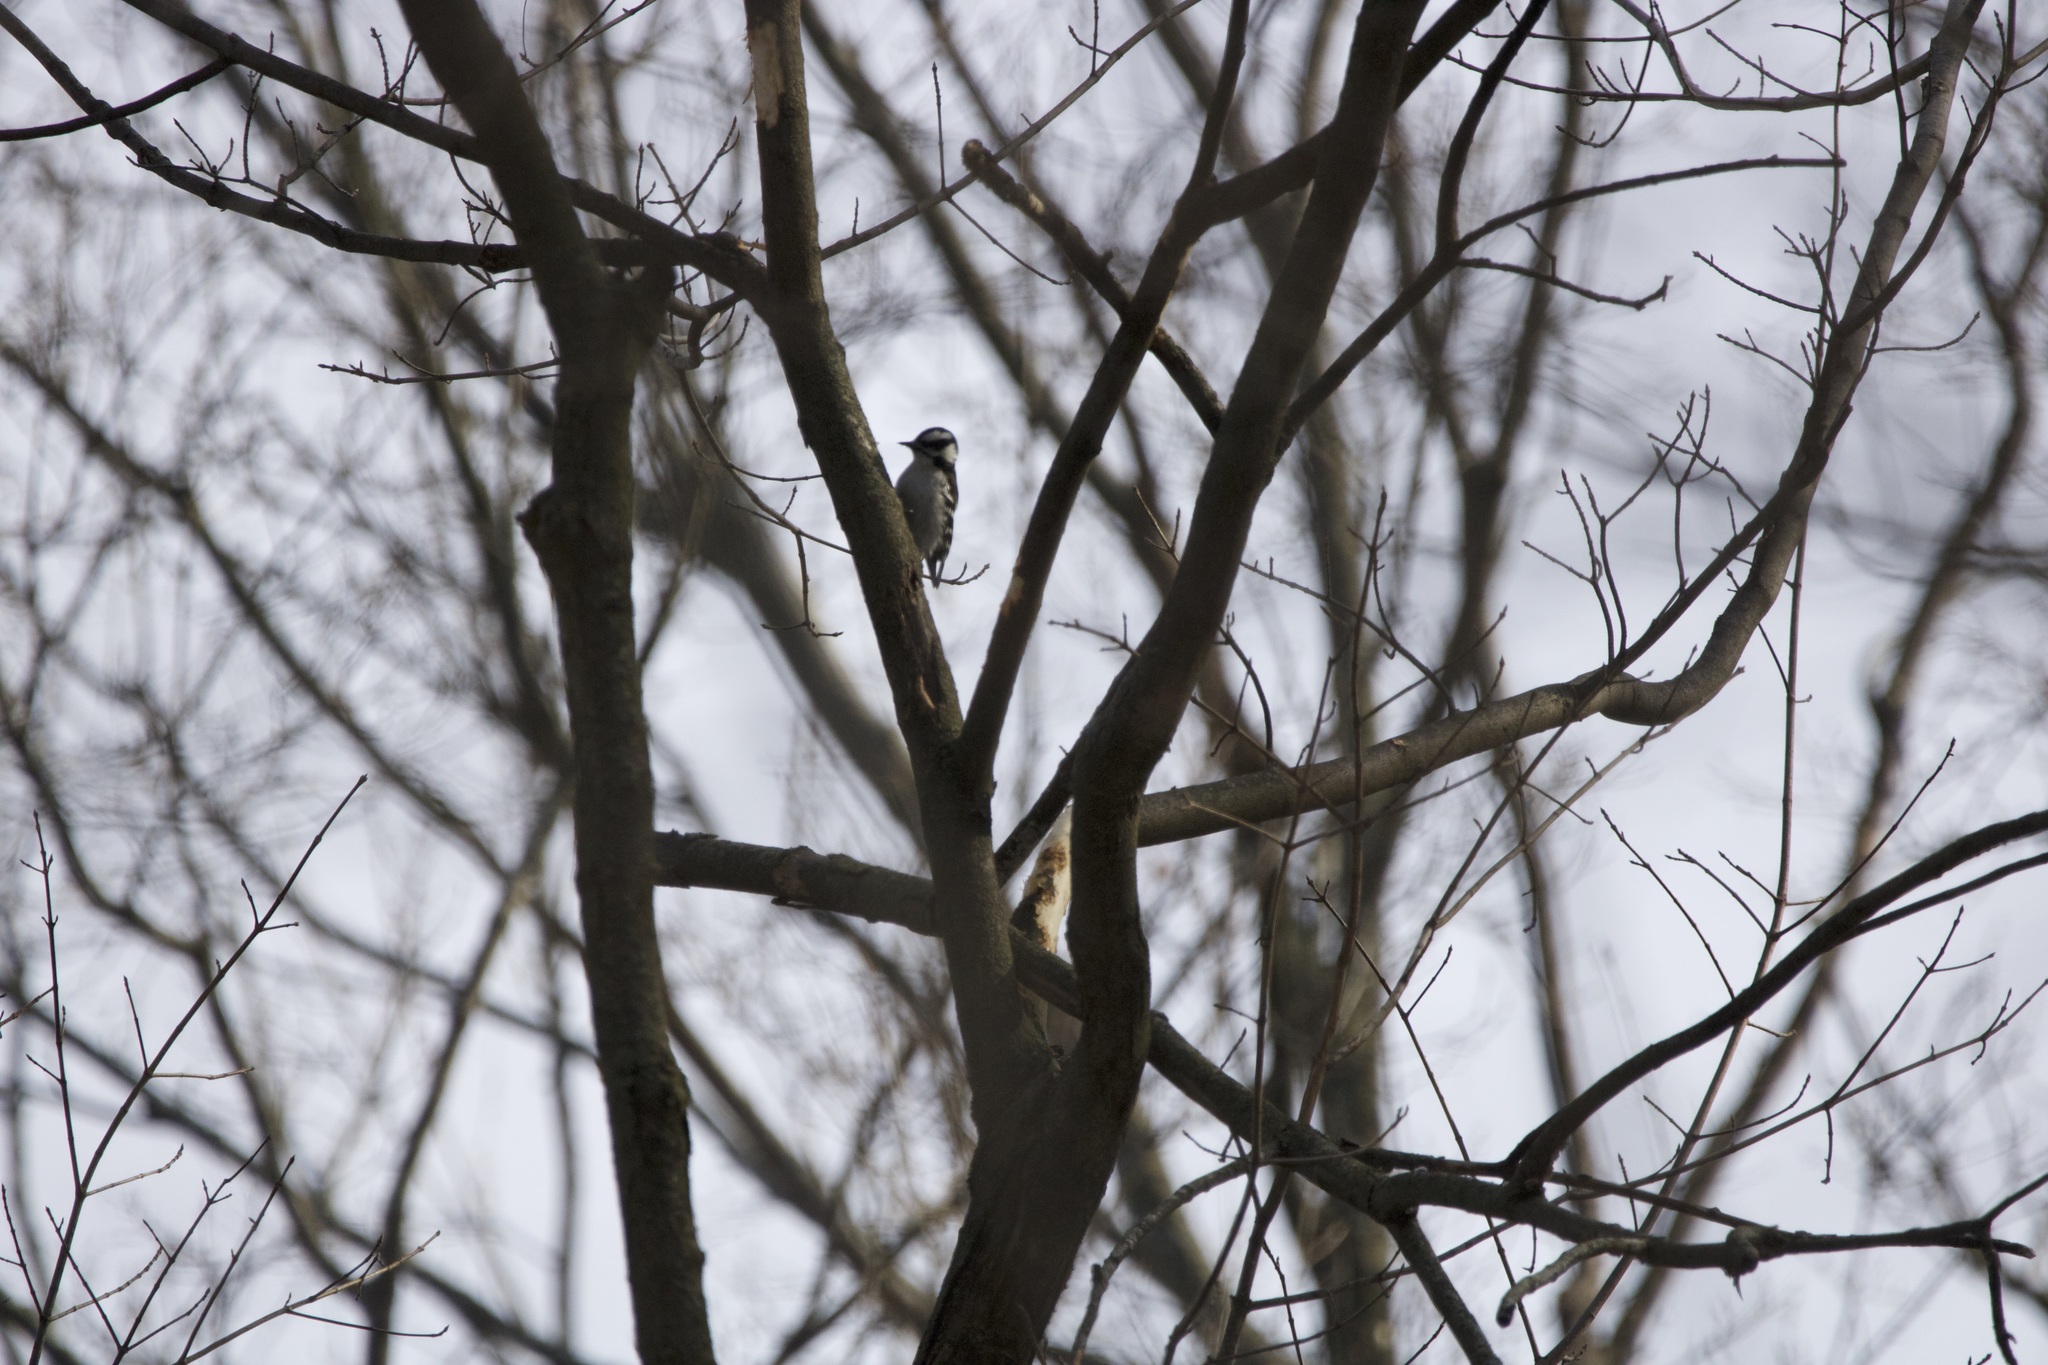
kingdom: Animalia
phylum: Chordata
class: Aves
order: Piciformes
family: Picidae
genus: Dryobates
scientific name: Dryobates pubescens
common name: Downy woodpecker
